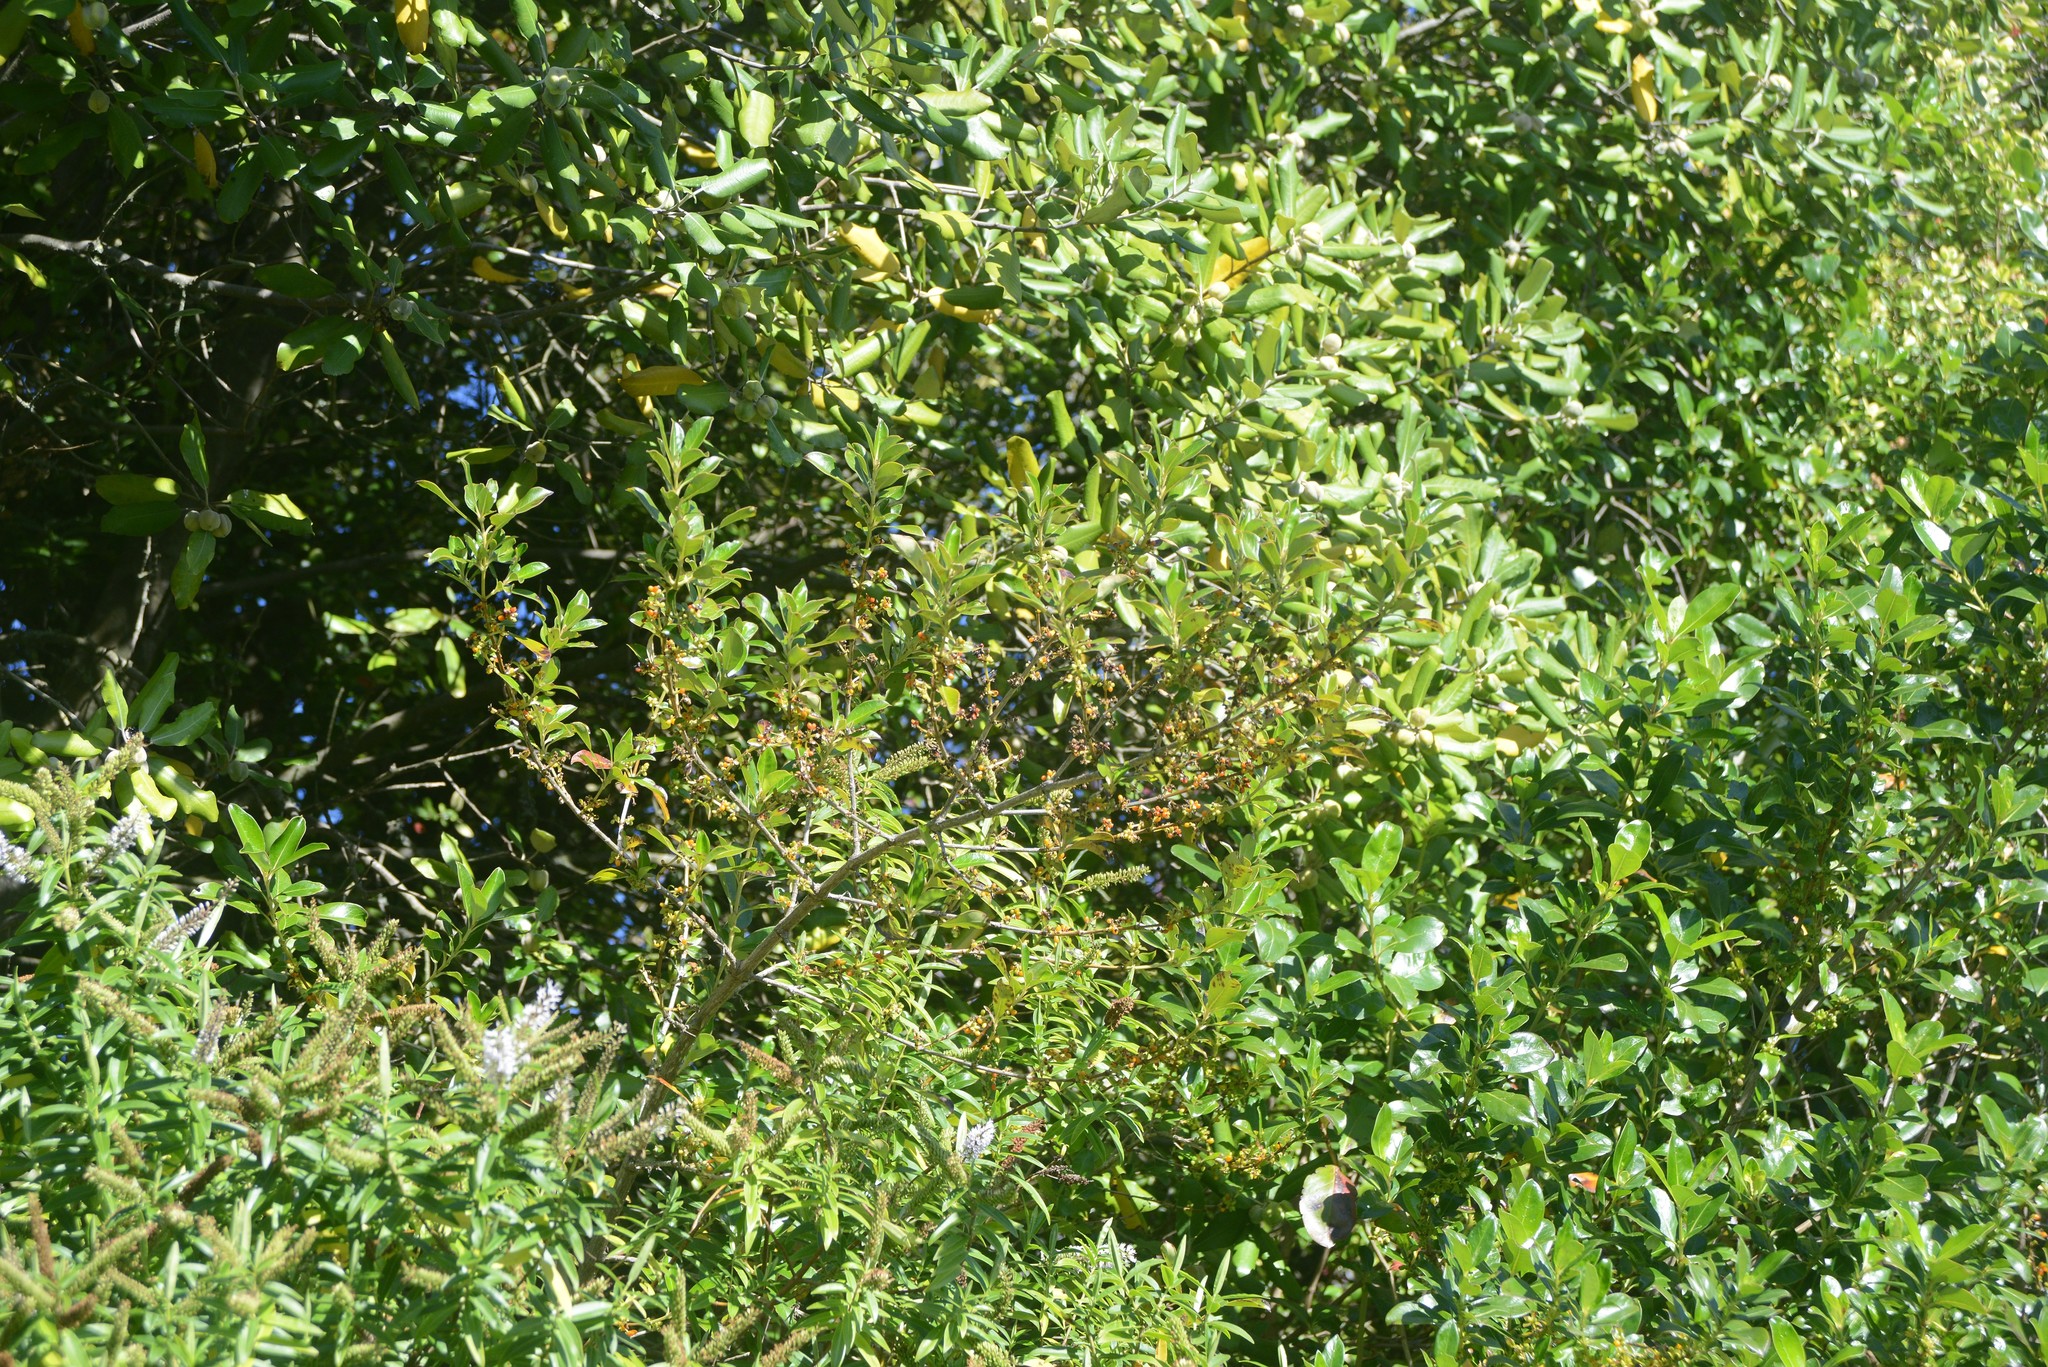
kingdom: Plantae
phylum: Tracheophyta
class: Magnoliopsida
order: Gentianales
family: Rubiaceae
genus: Coprosma
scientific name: Coprosma robusta
